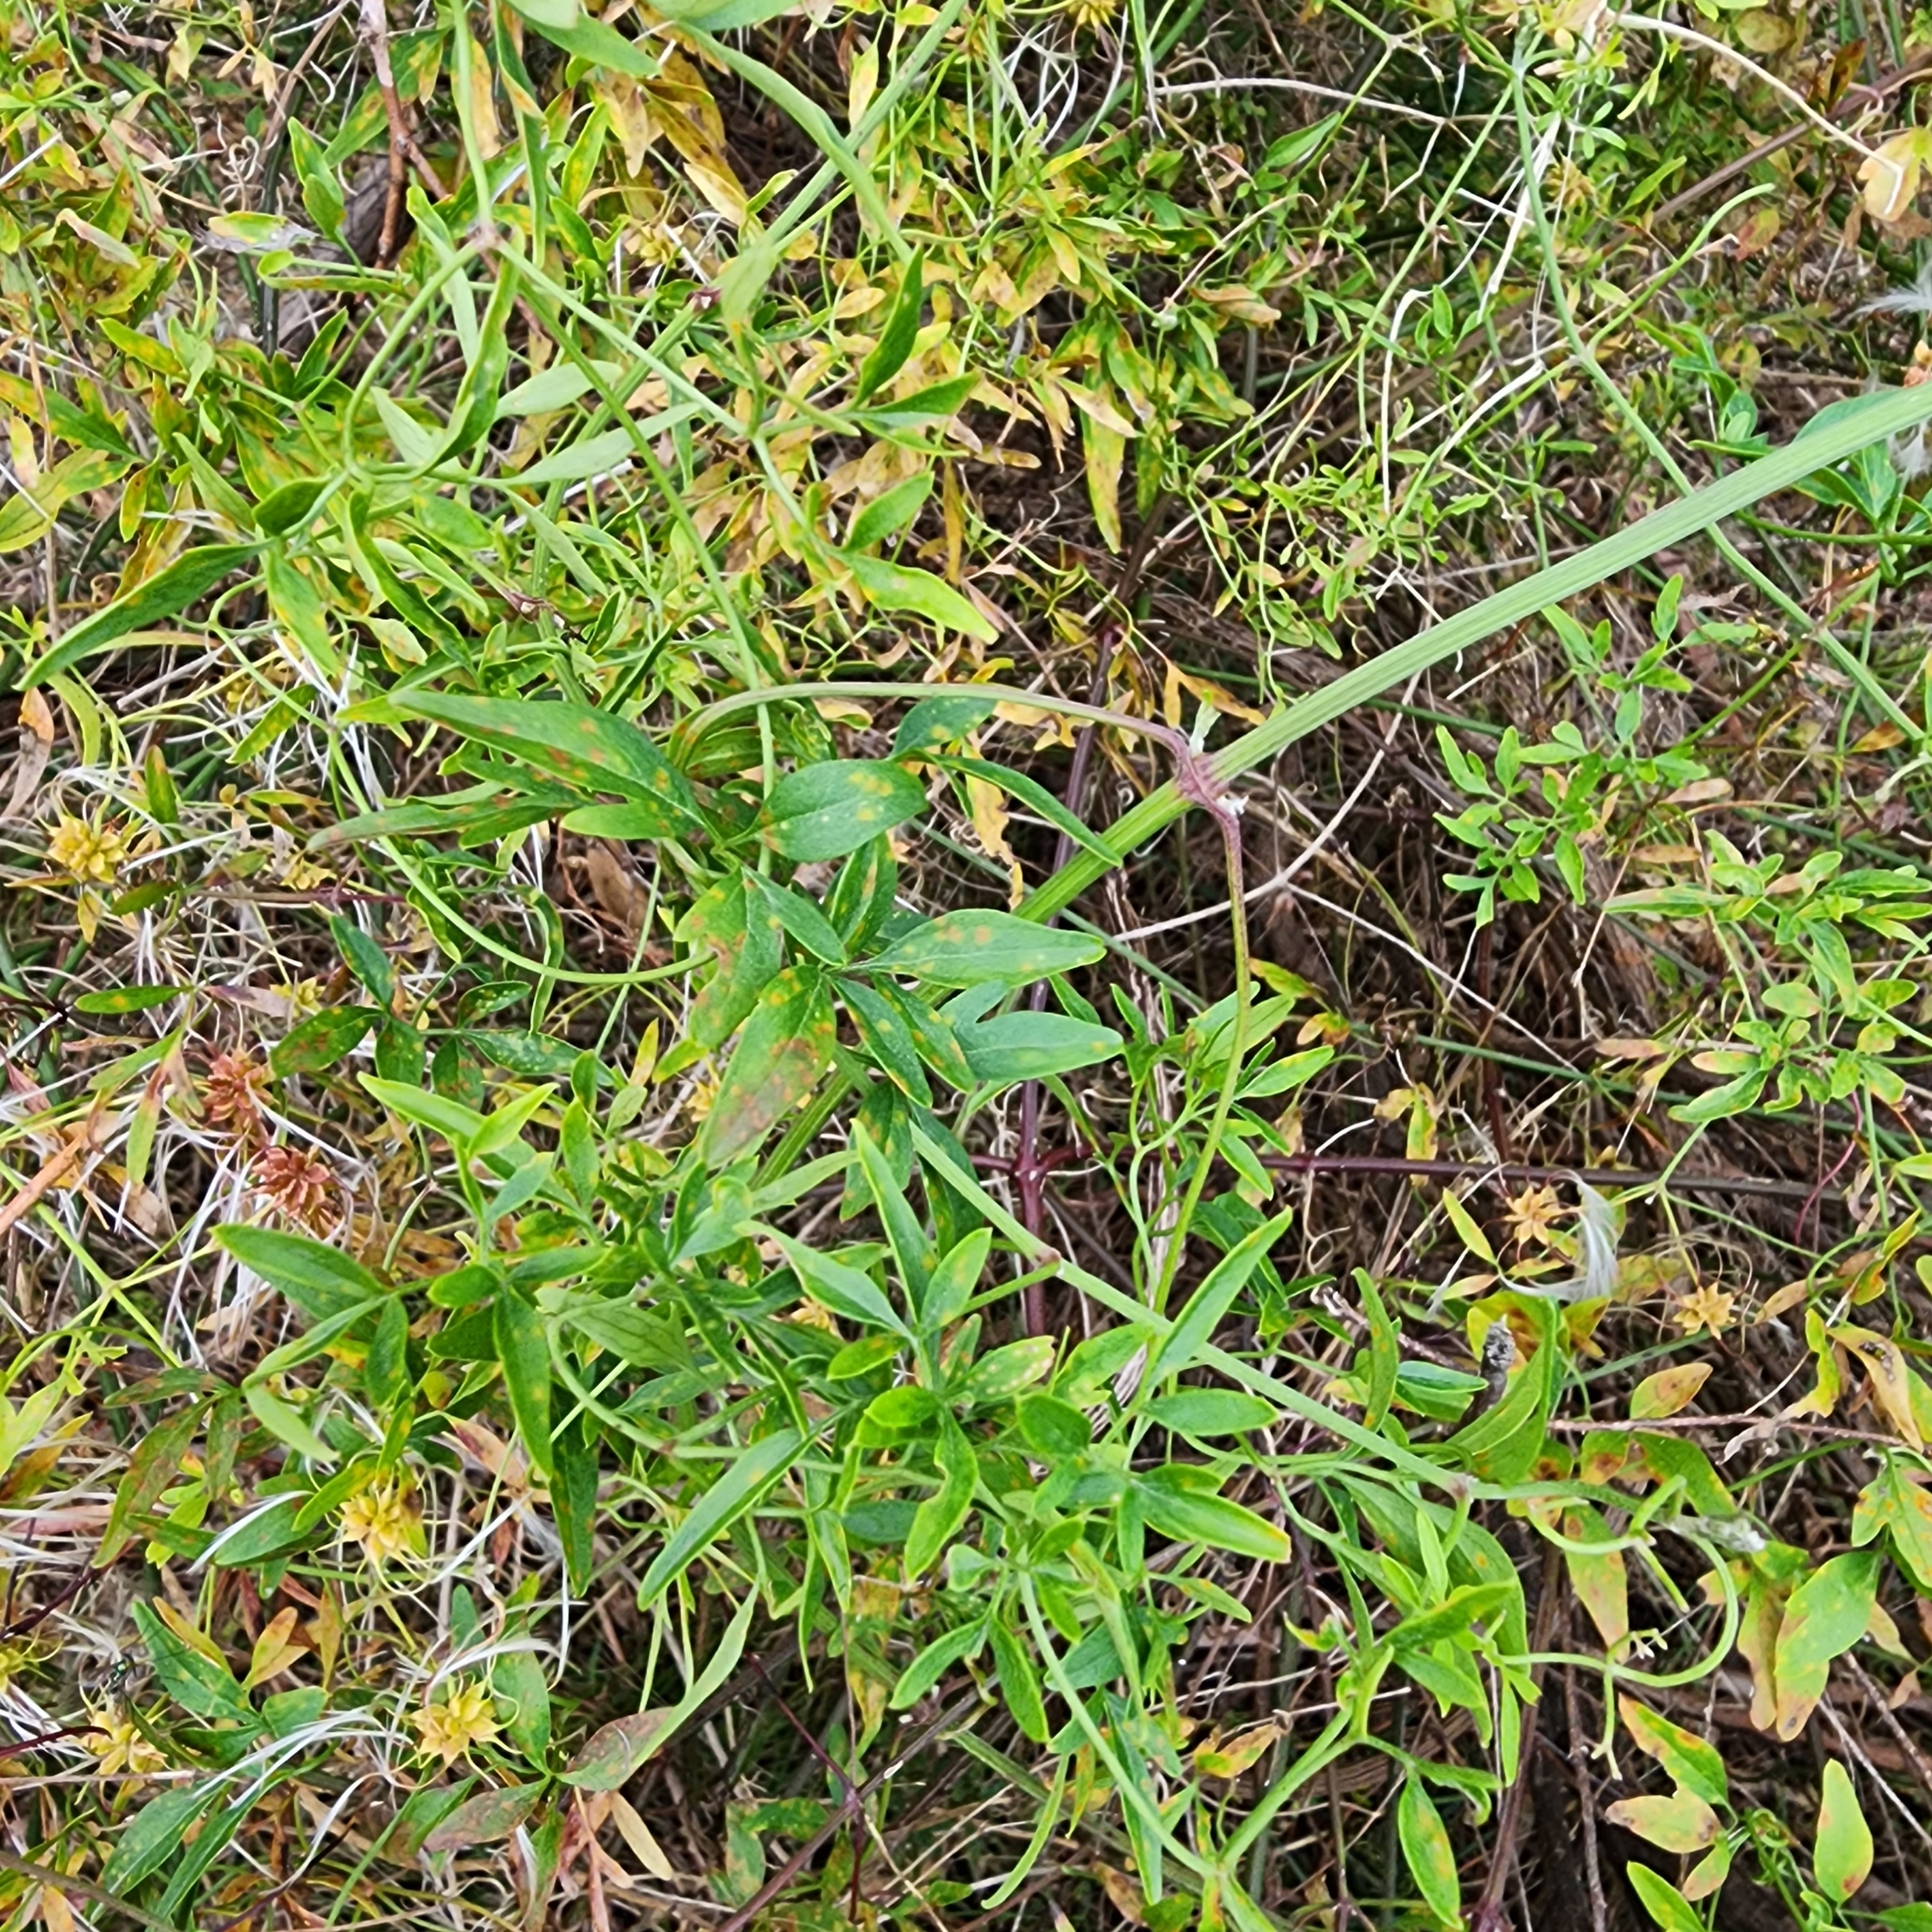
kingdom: Plantae
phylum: Tracheophyta
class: Magnoliopsida
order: Ranunculales
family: Ranunculaceae
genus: Clematis
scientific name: Clematis microphylla
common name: Headachevine
